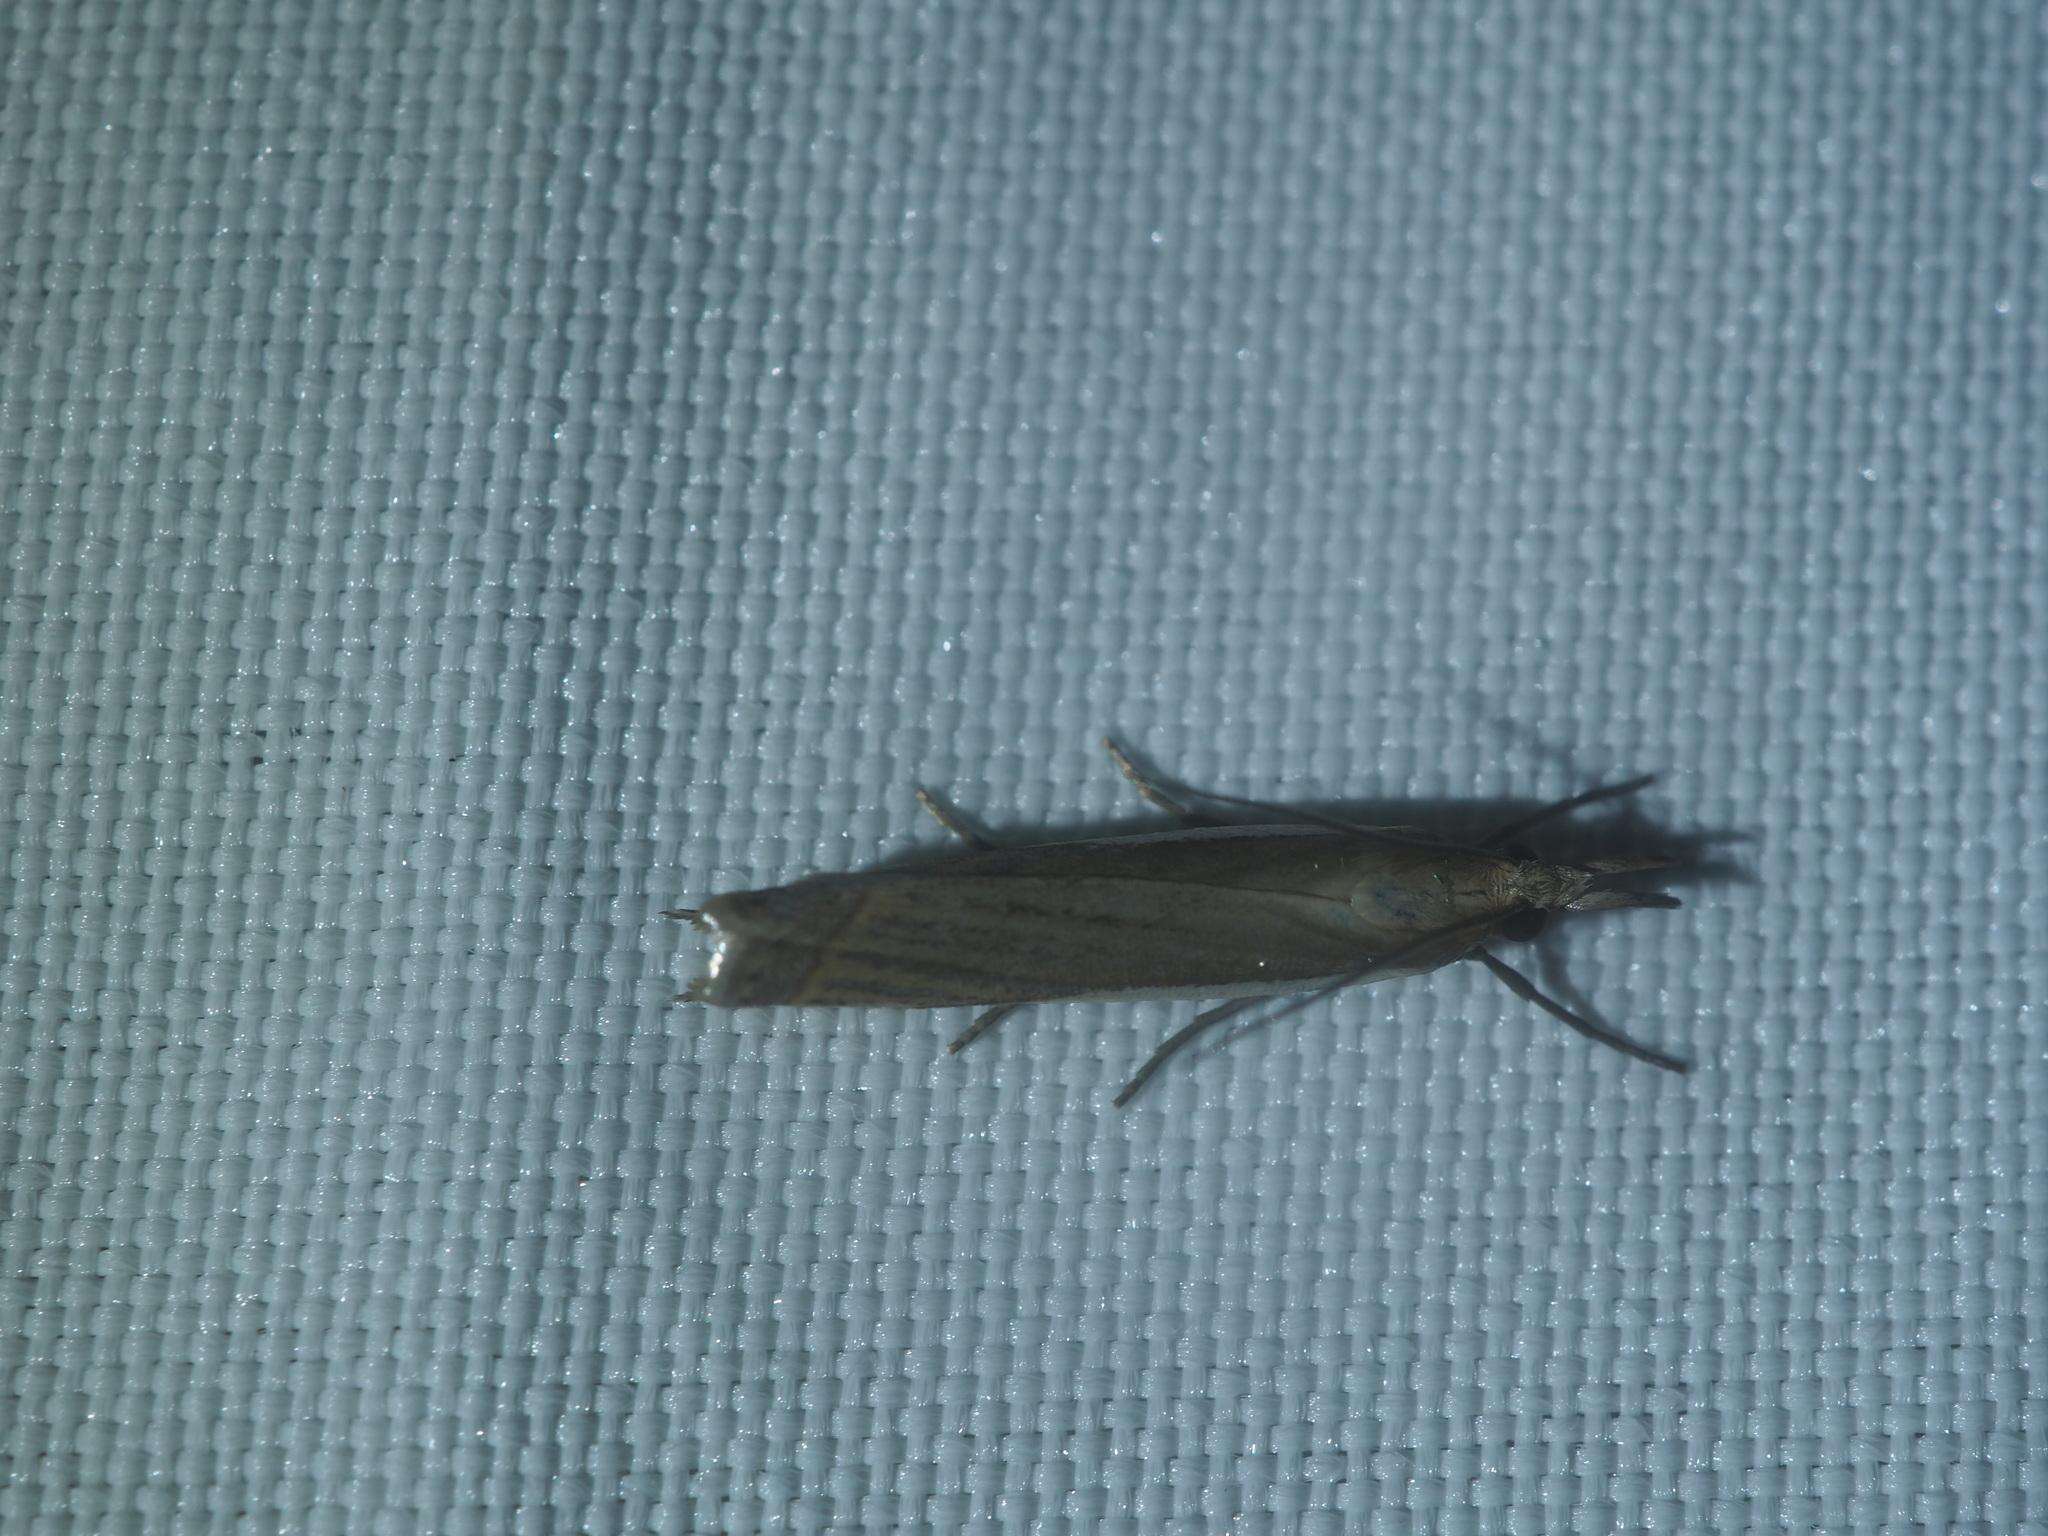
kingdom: Animalia
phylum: Arthropoda
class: Insecta
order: Lepidoptera
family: Crambidae
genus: Crambus
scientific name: Crambus pascuella
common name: Inlaid grass-veneer
